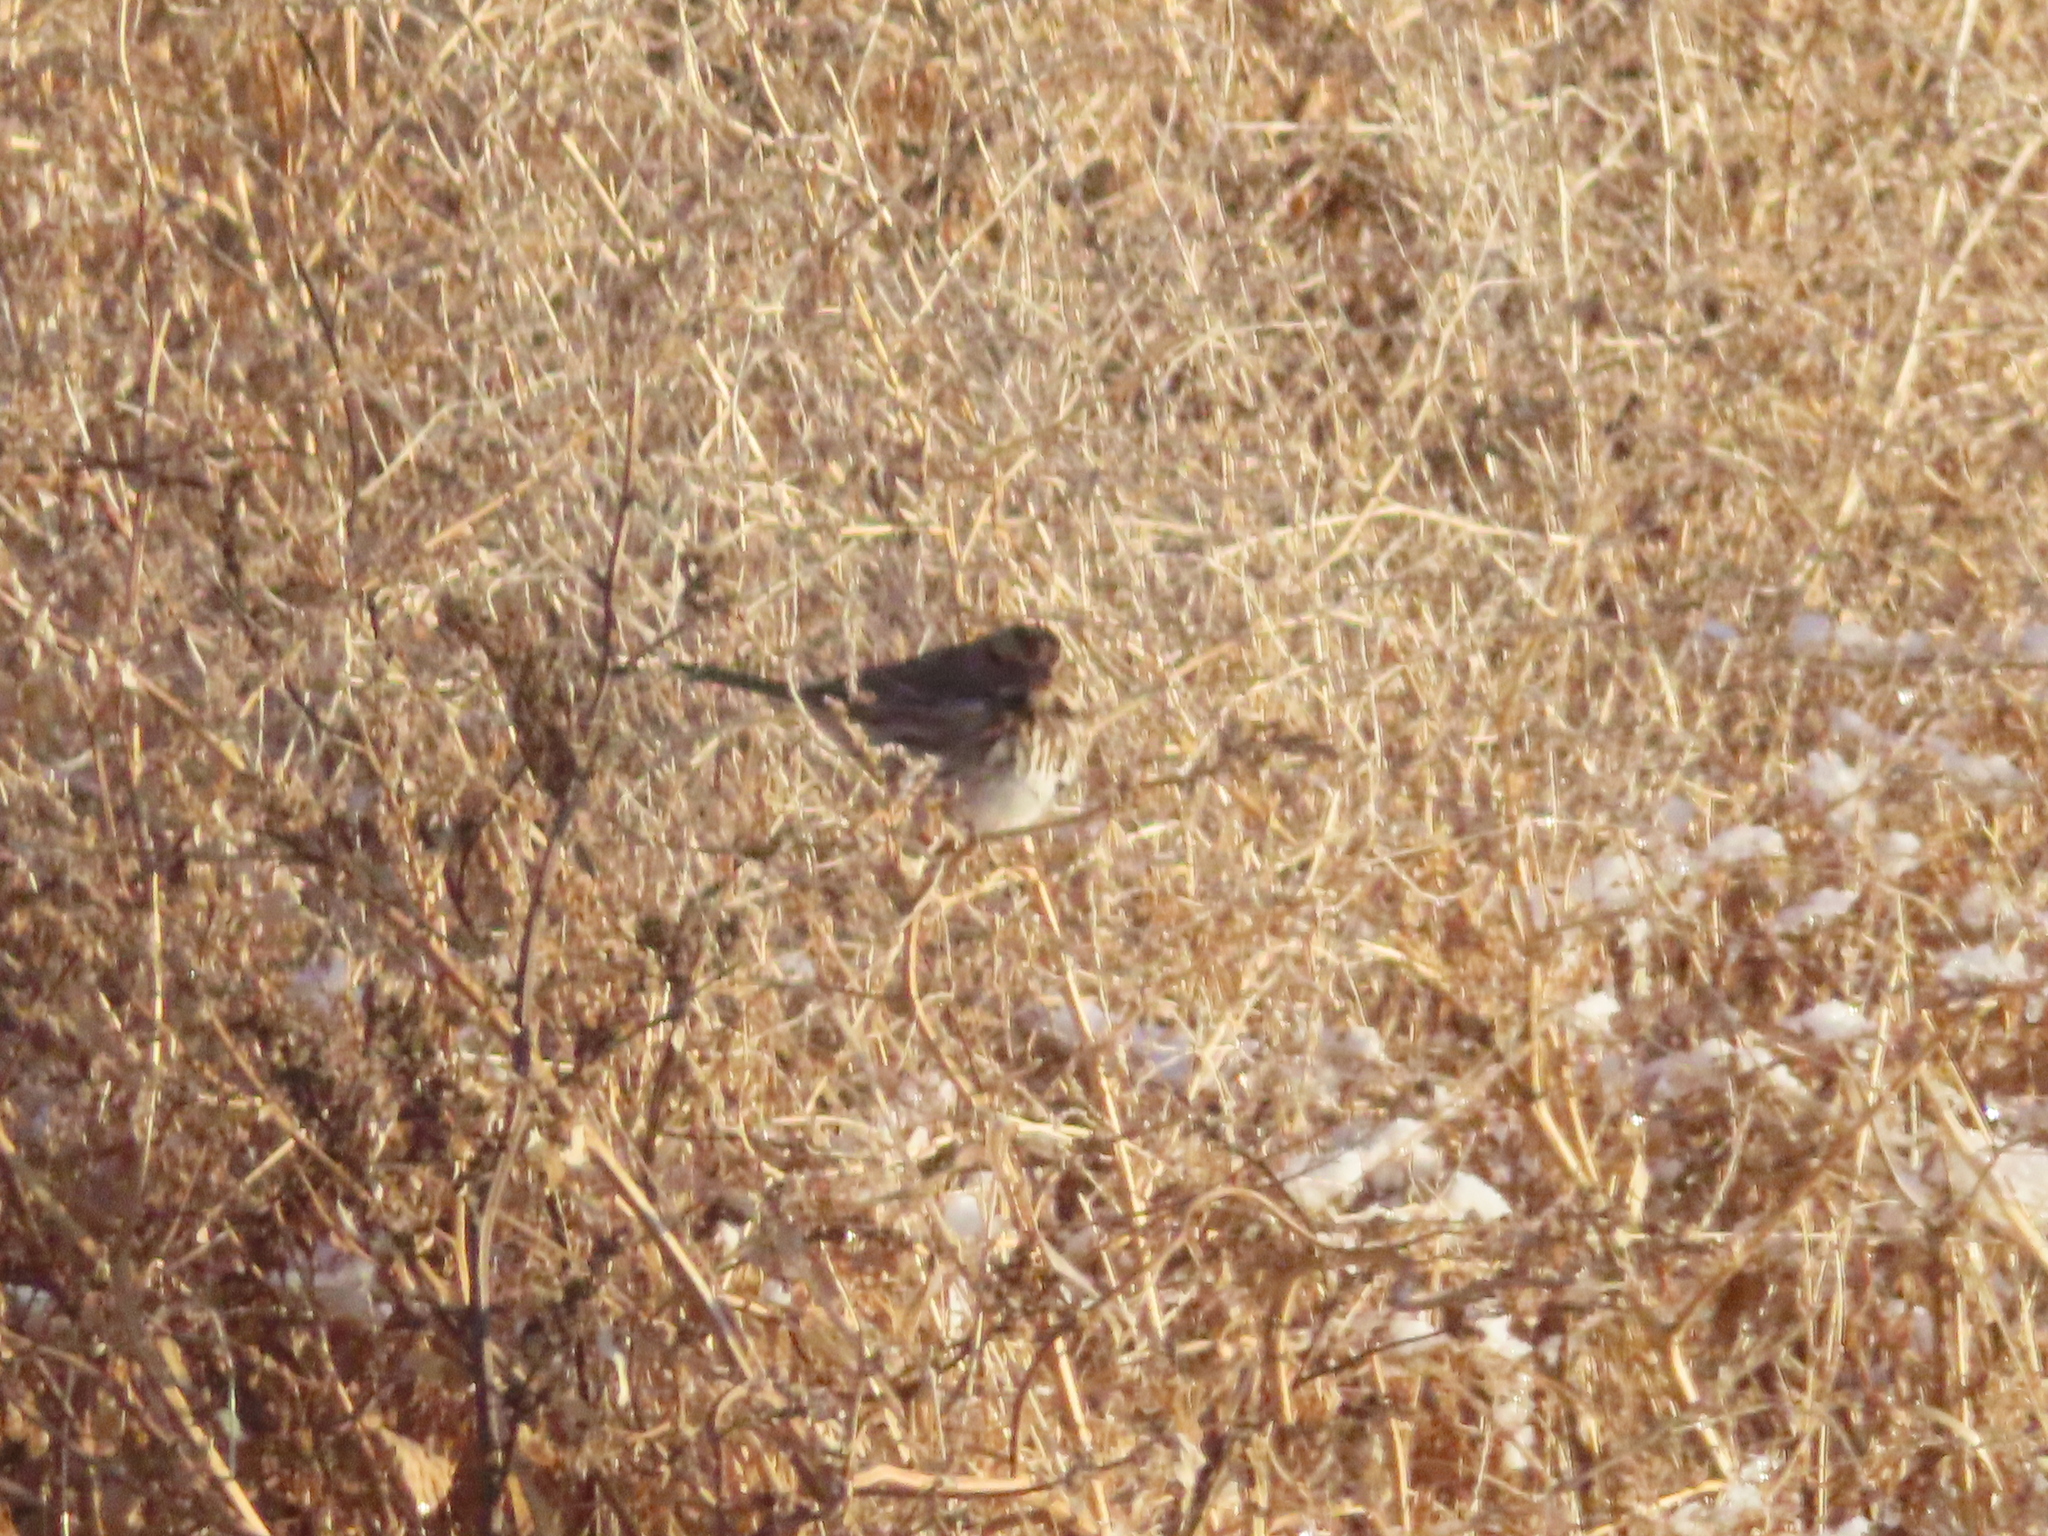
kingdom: Animalia
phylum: Chordata
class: Aves
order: Passeriformes
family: Passerellidae
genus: Melospiza
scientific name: Melospiza melodia
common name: Song sparrow
